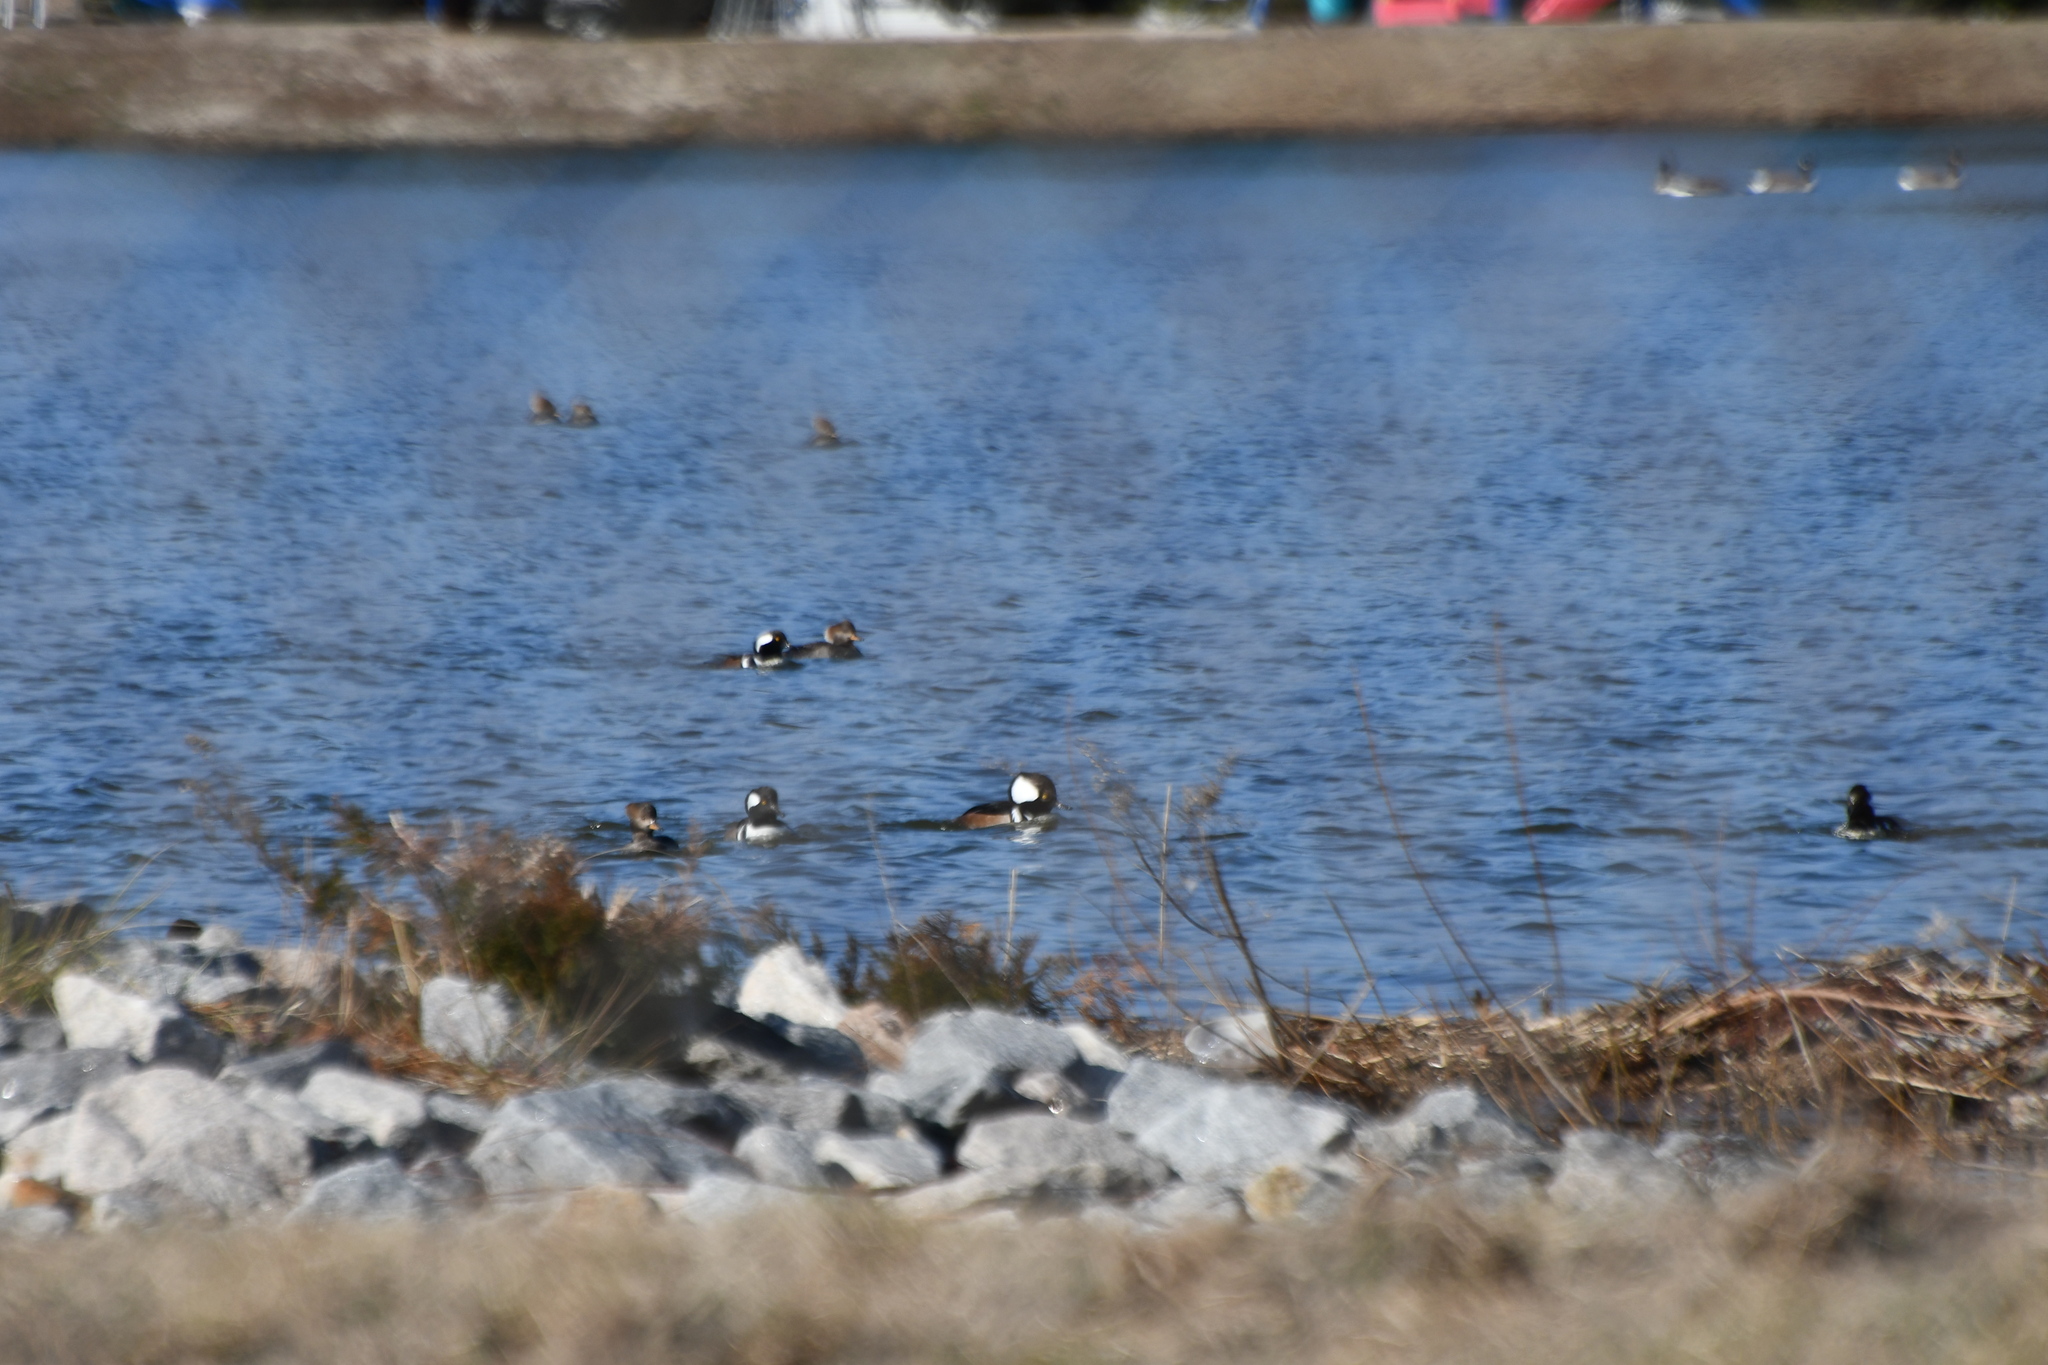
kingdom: Animalia
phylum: Chordata
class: Aves
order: Anseriformes
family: Anatidae
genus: Lophodytes
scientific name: Lophodytes cucullatus
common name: Hooded merganser
